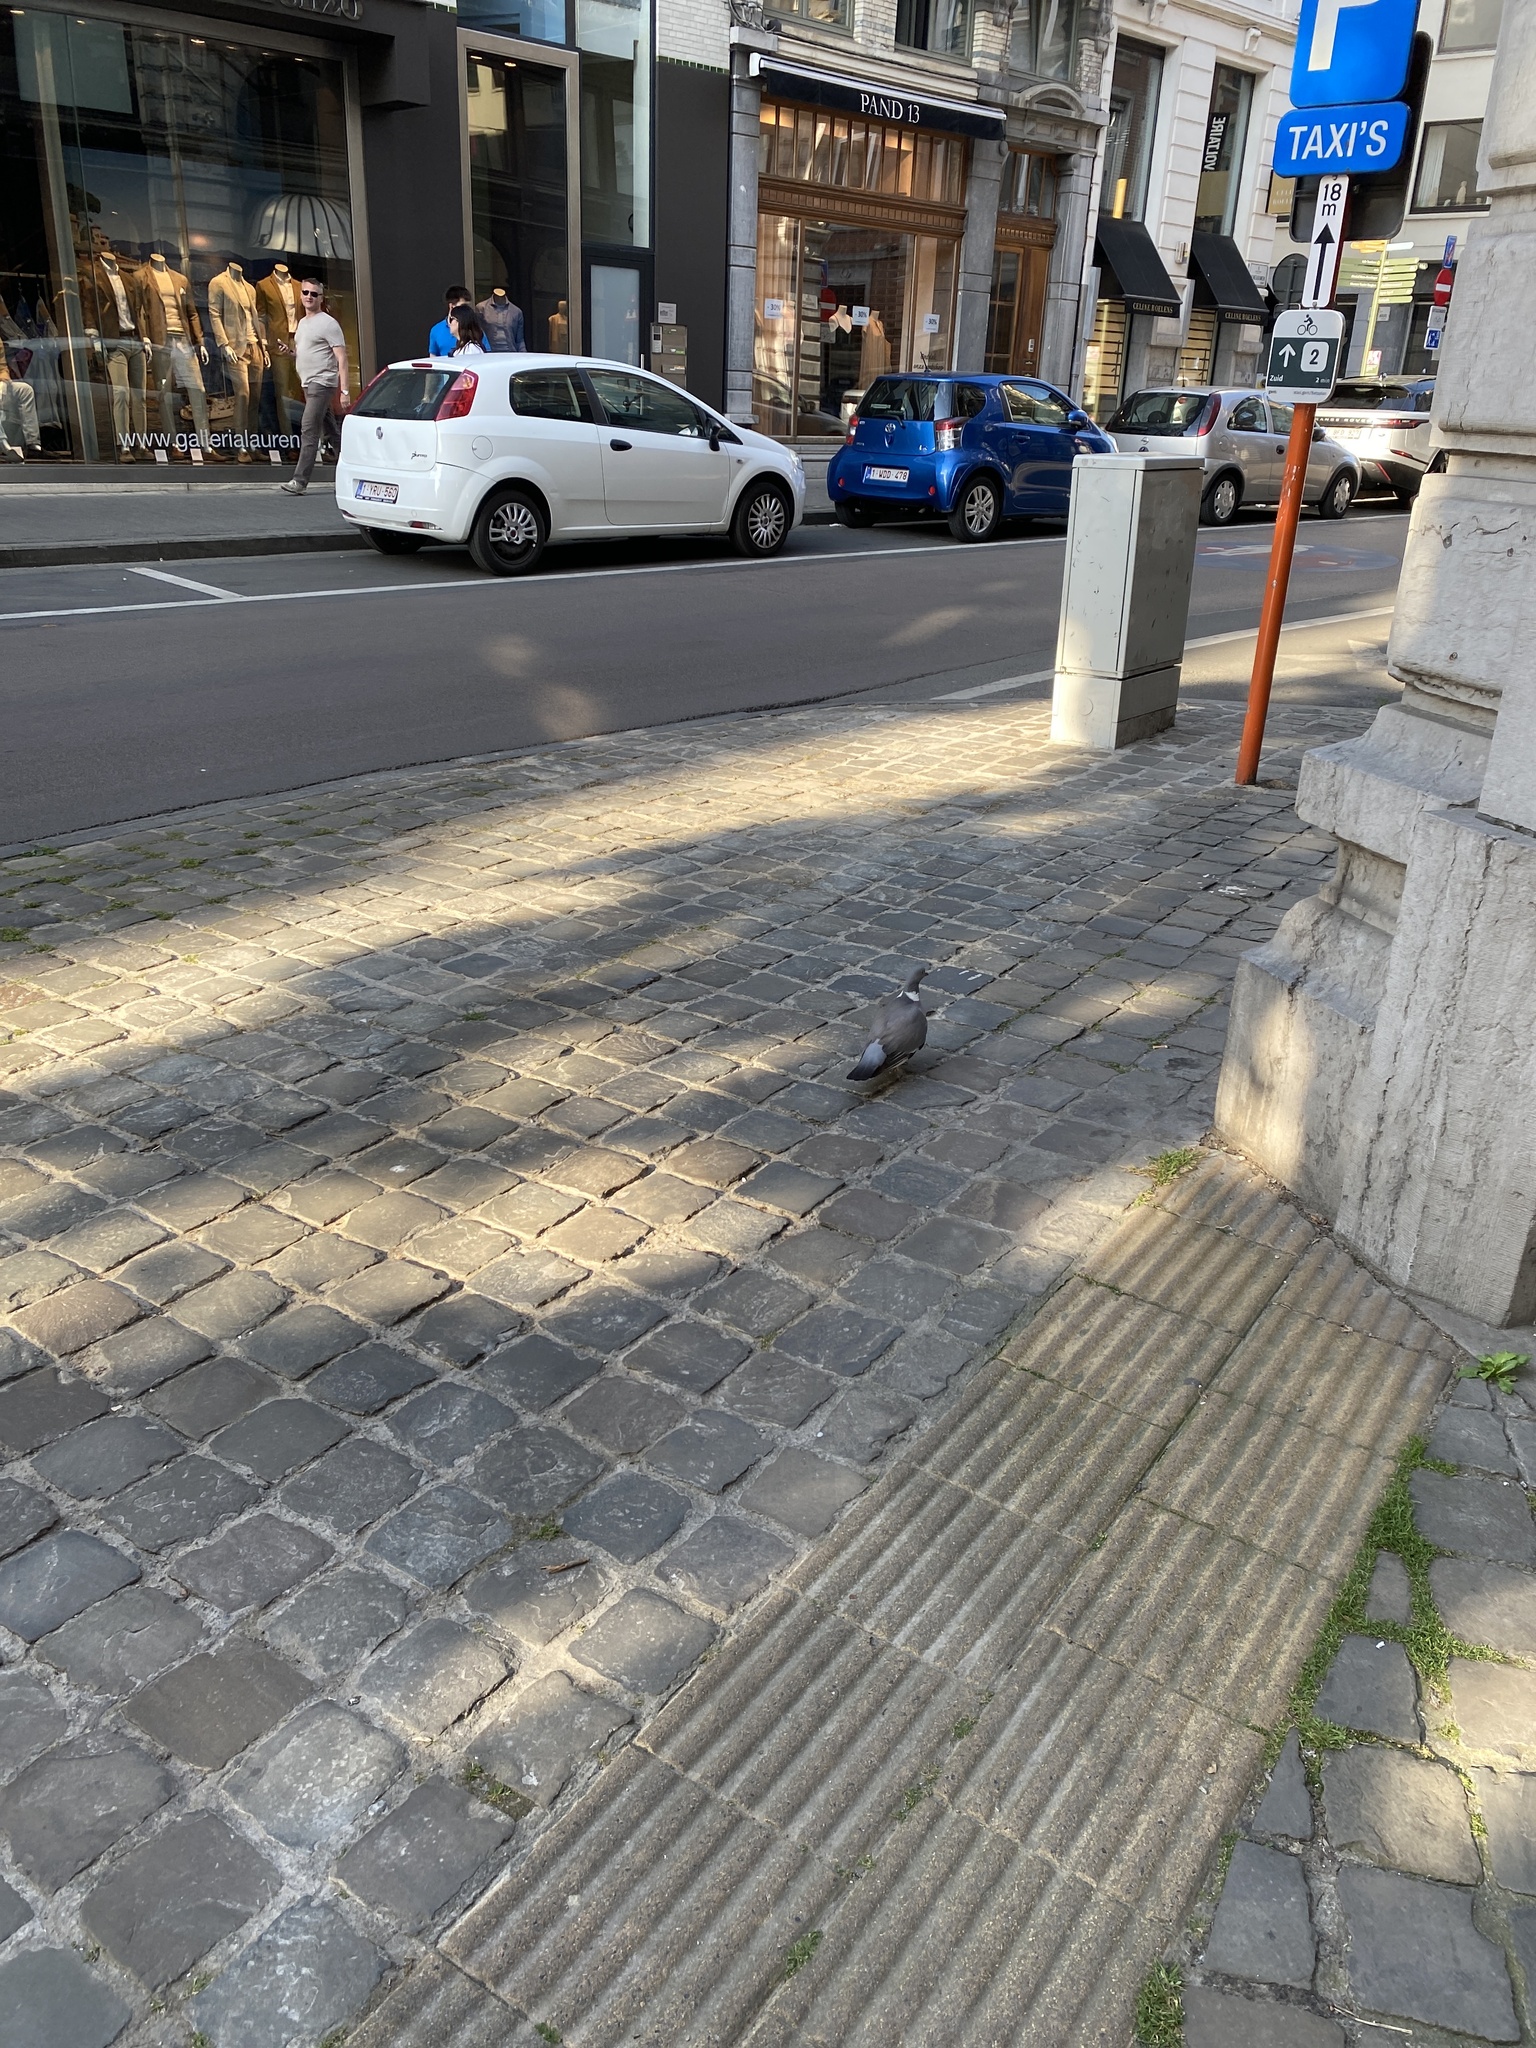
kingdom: Animalia
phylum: Chordata
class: Aves
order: Columbiformes
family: Columbidae
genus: Columba
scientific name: Columba palumbus
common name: Common wood pigeon
